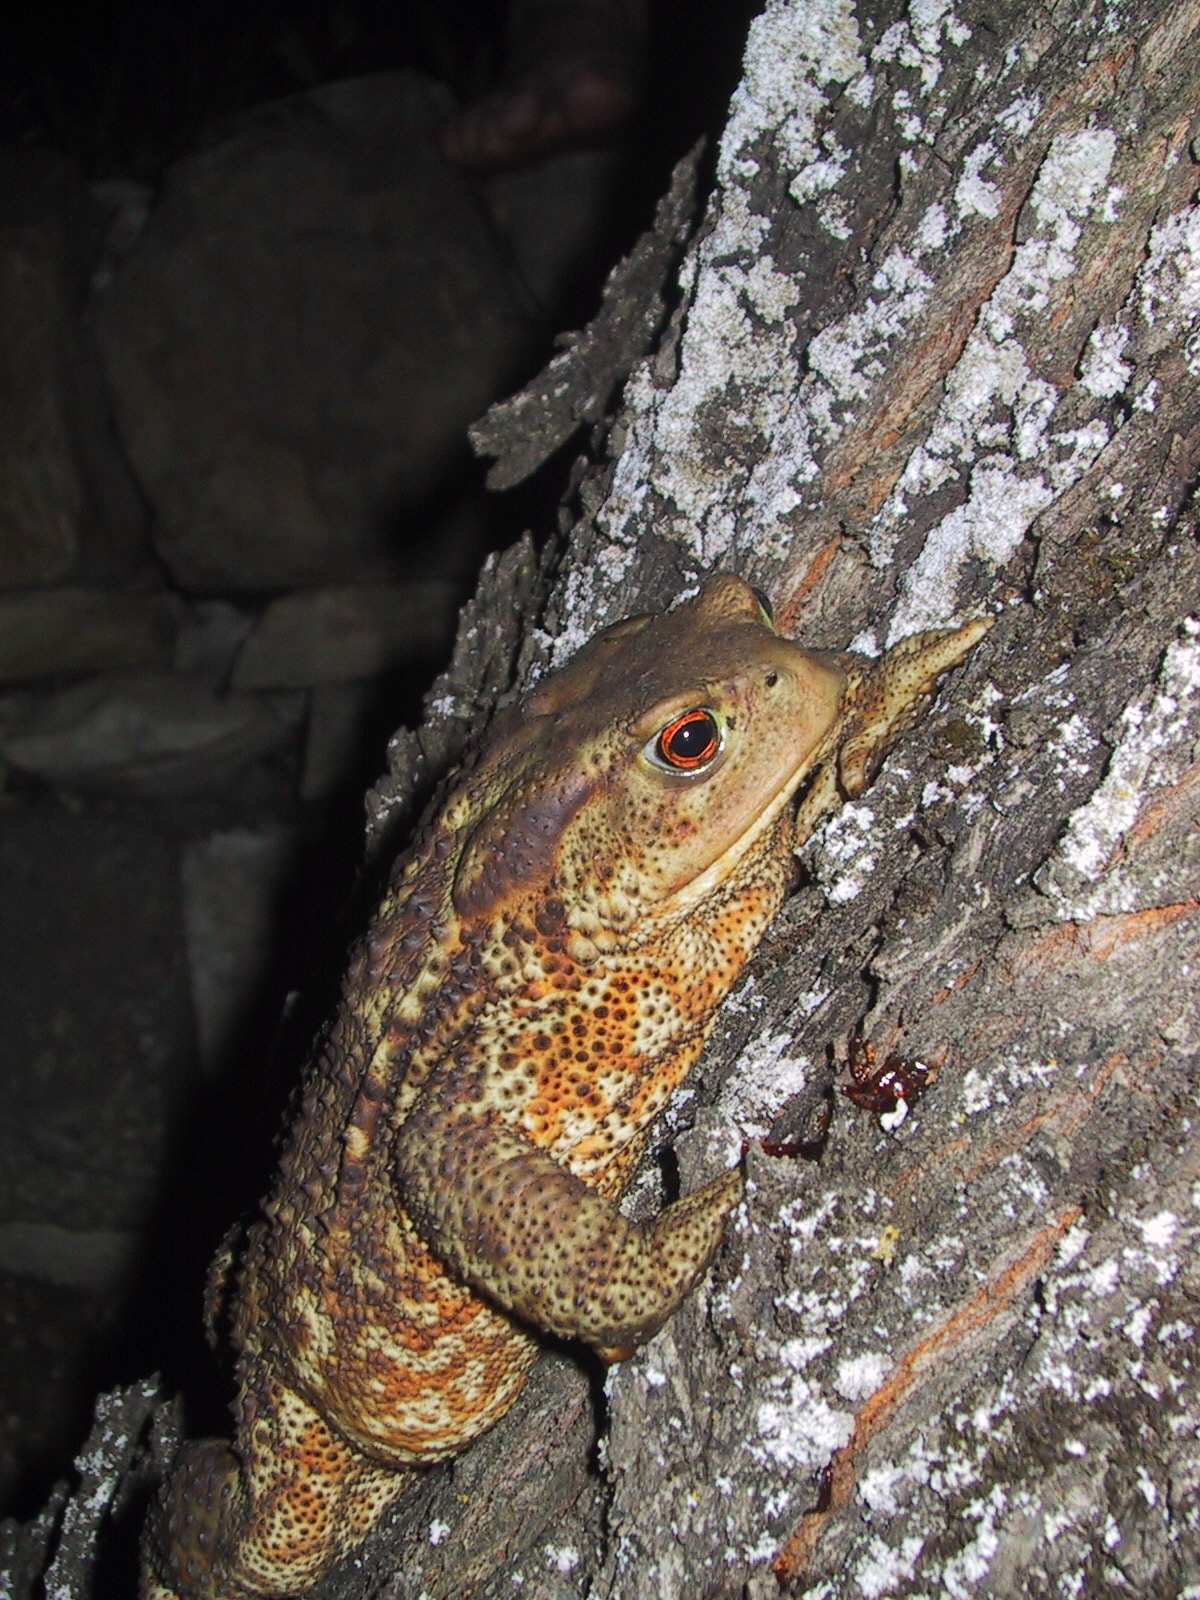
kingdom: Animalia
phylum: Chordata
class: Amphibia
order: Anura
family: Bufonidae
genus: Bufo
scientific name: Bufo bufo
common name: Common toad
